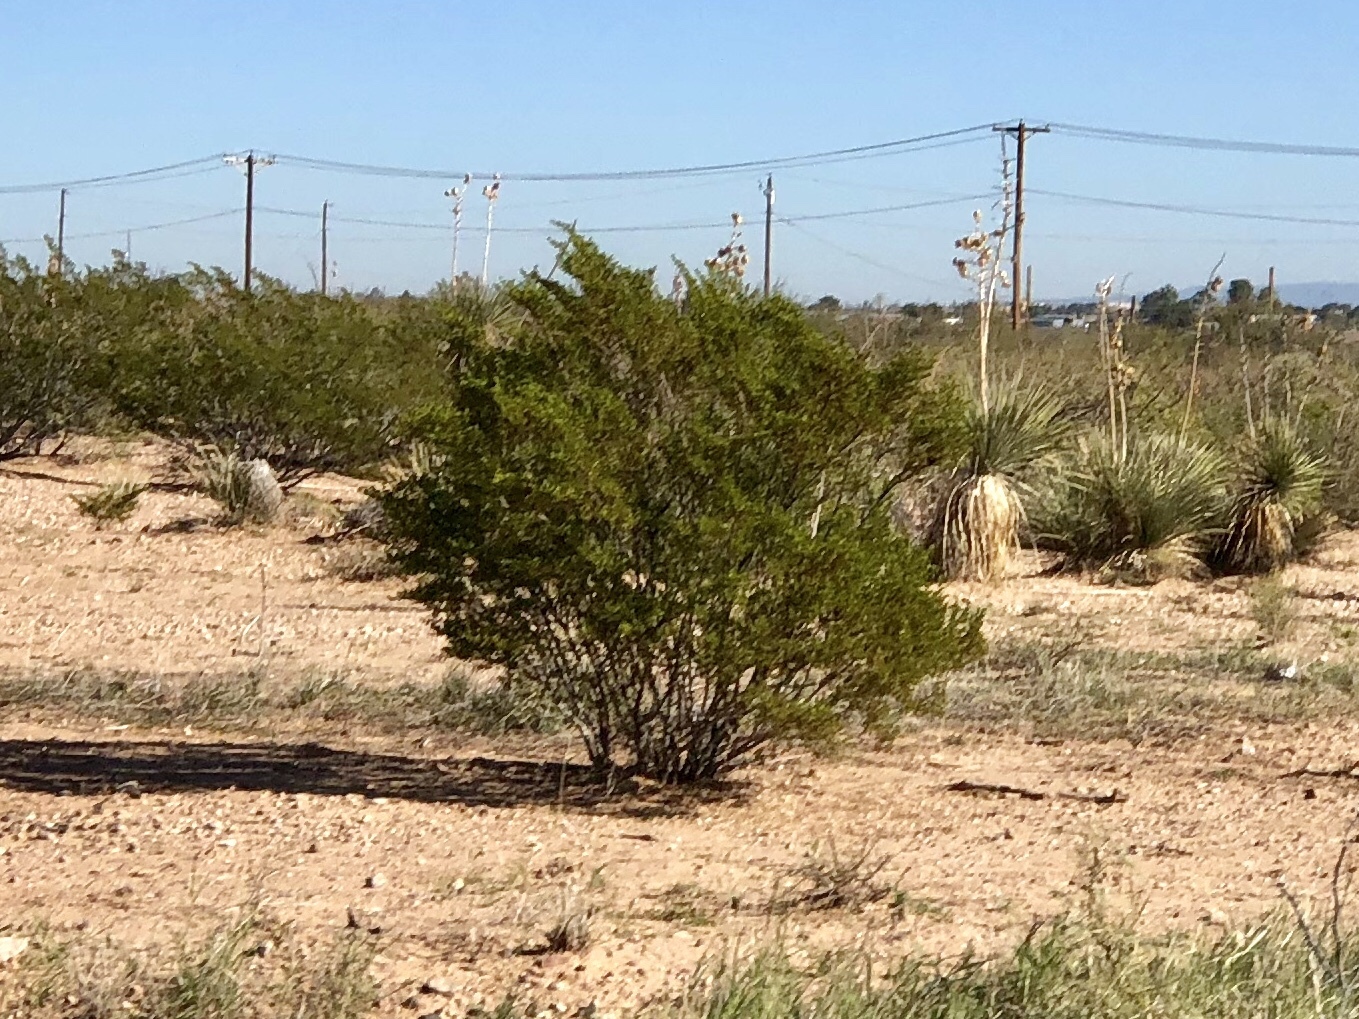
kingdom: Plantae
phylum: Tracheophyta
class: Magnoliopsida
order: Zygophyllales
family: Zygophyllaceae
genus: Larrea
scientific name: Larrea tridentata
